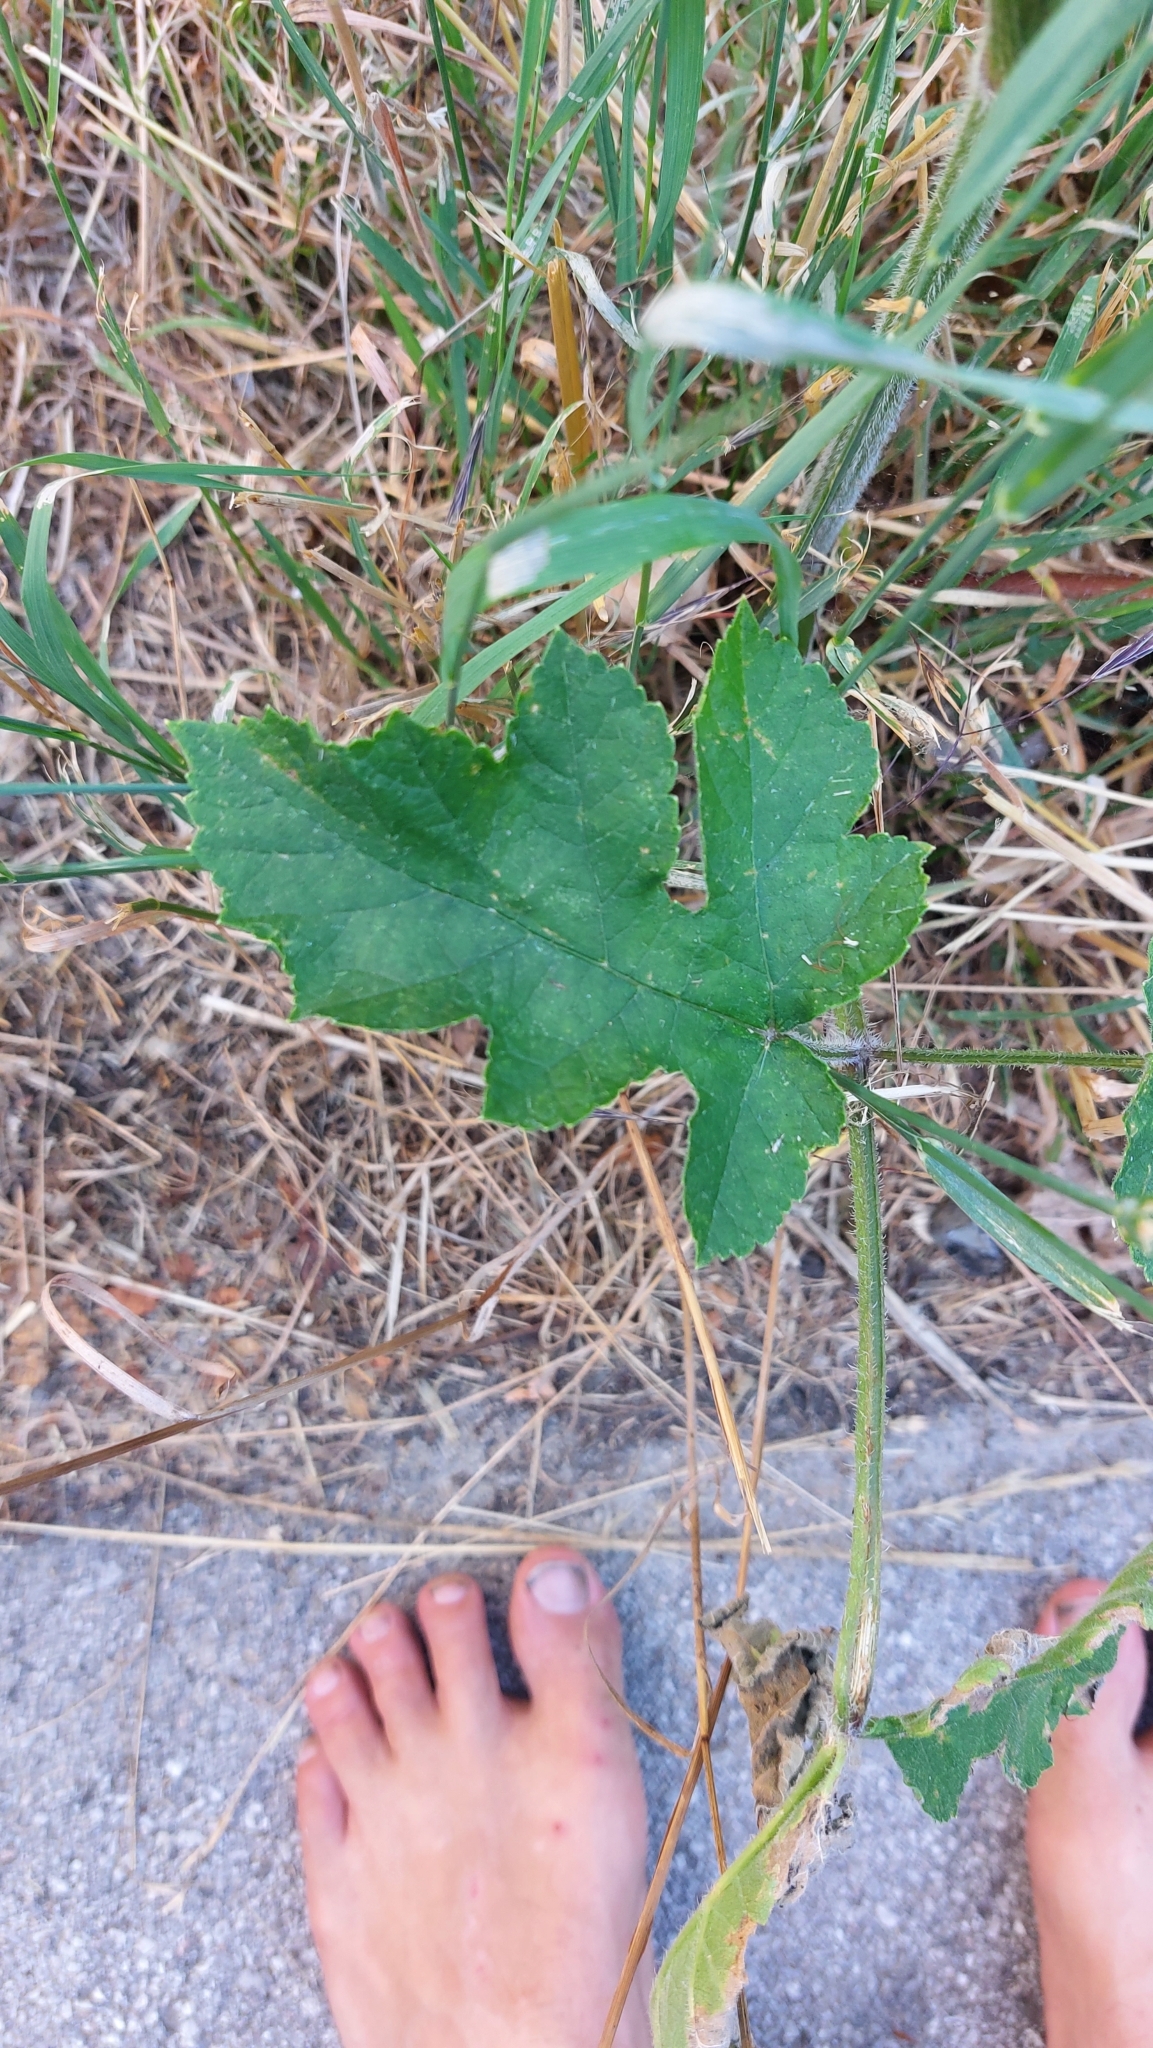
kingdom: Plantae
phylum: Tracheophyta
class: Magnoliopsida
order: Apiales
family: Apiaceae
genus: Heracleum
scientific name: Heracleum sphondylium
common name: Hogweed
